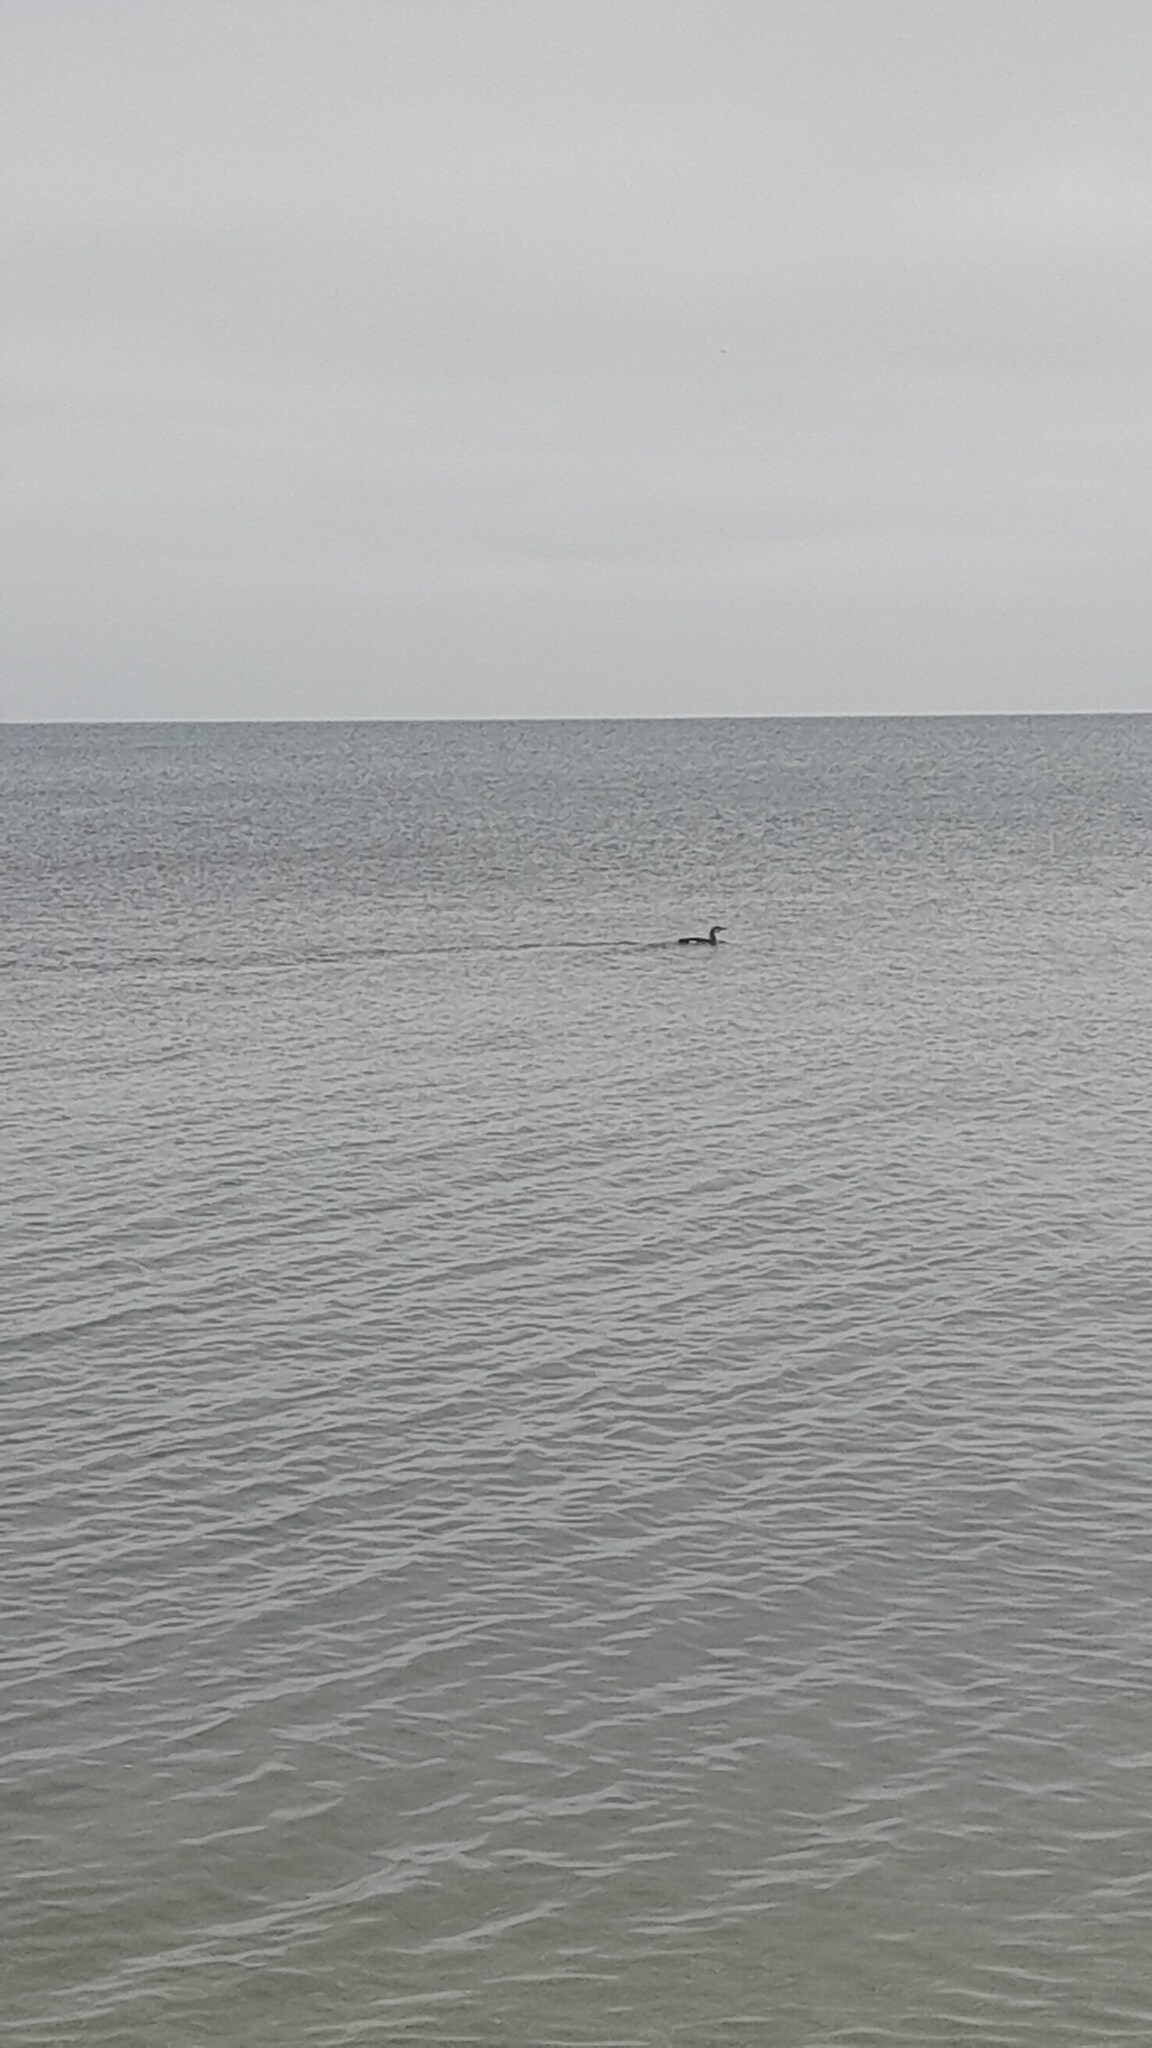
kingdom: Animalia
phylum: Chordata
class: Aves
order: Gaviiformes
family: Gaviidae
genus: Gavia
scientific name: Gavia arctica
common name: Black-throated loon
